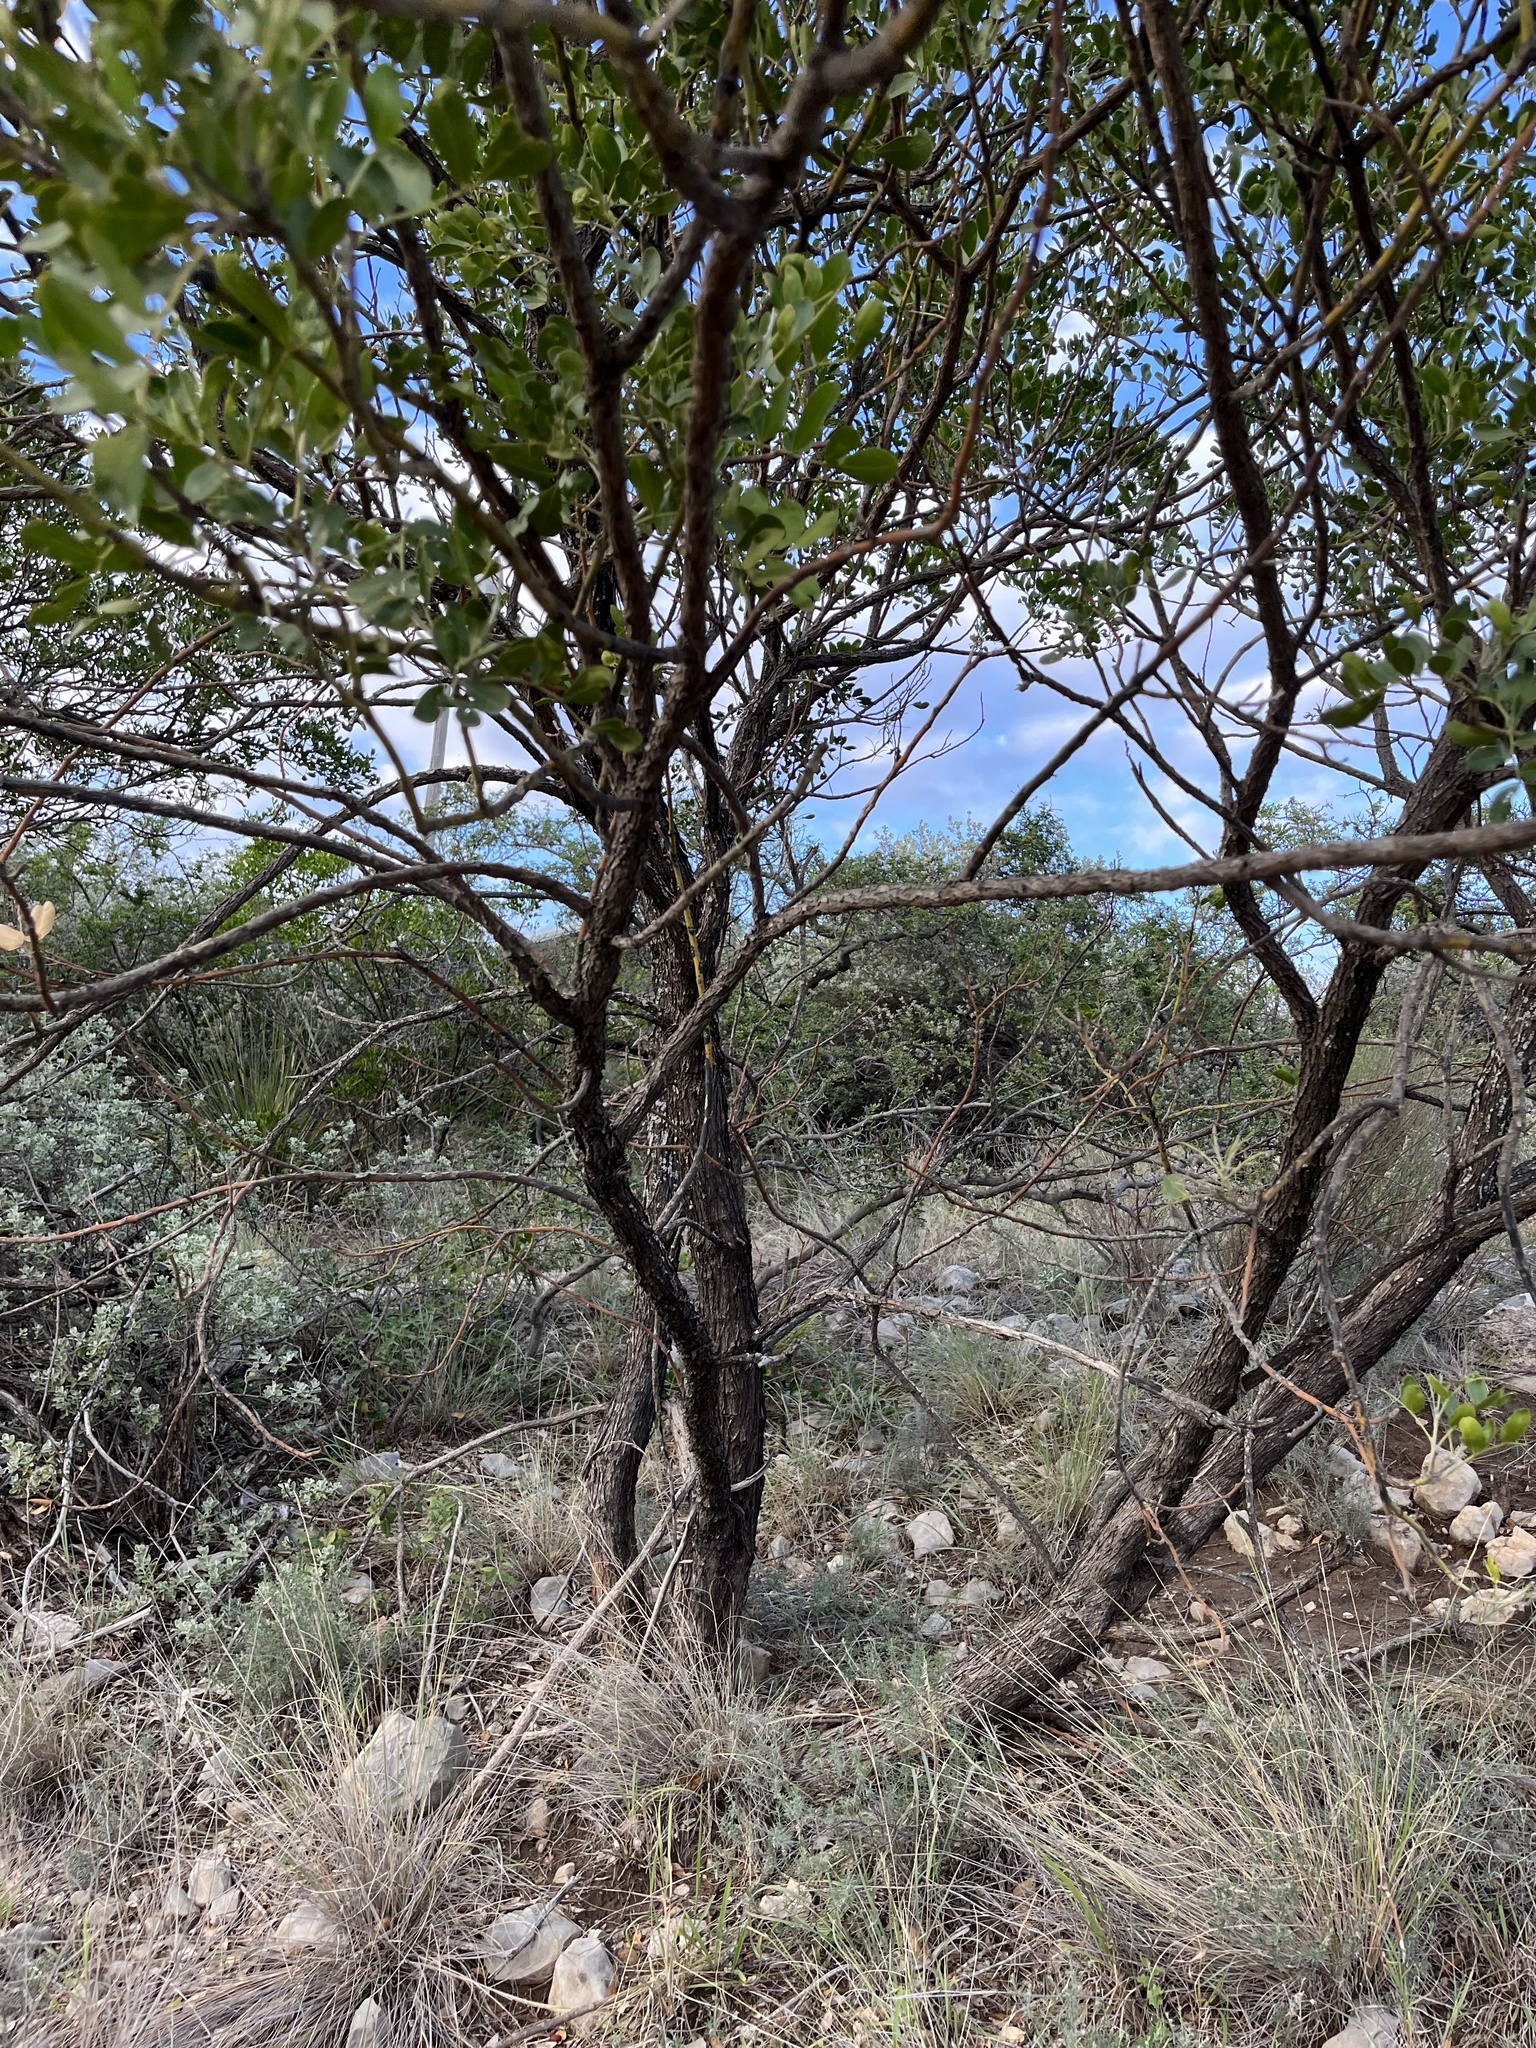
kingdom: Plantae
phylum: Tracheophyta
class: Magnoliopsida
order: Fabales
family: Fabaceae
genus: Dermatophyllum
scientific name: Dermatophyllum secundiflorum
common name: Texas-mountain-laurel
